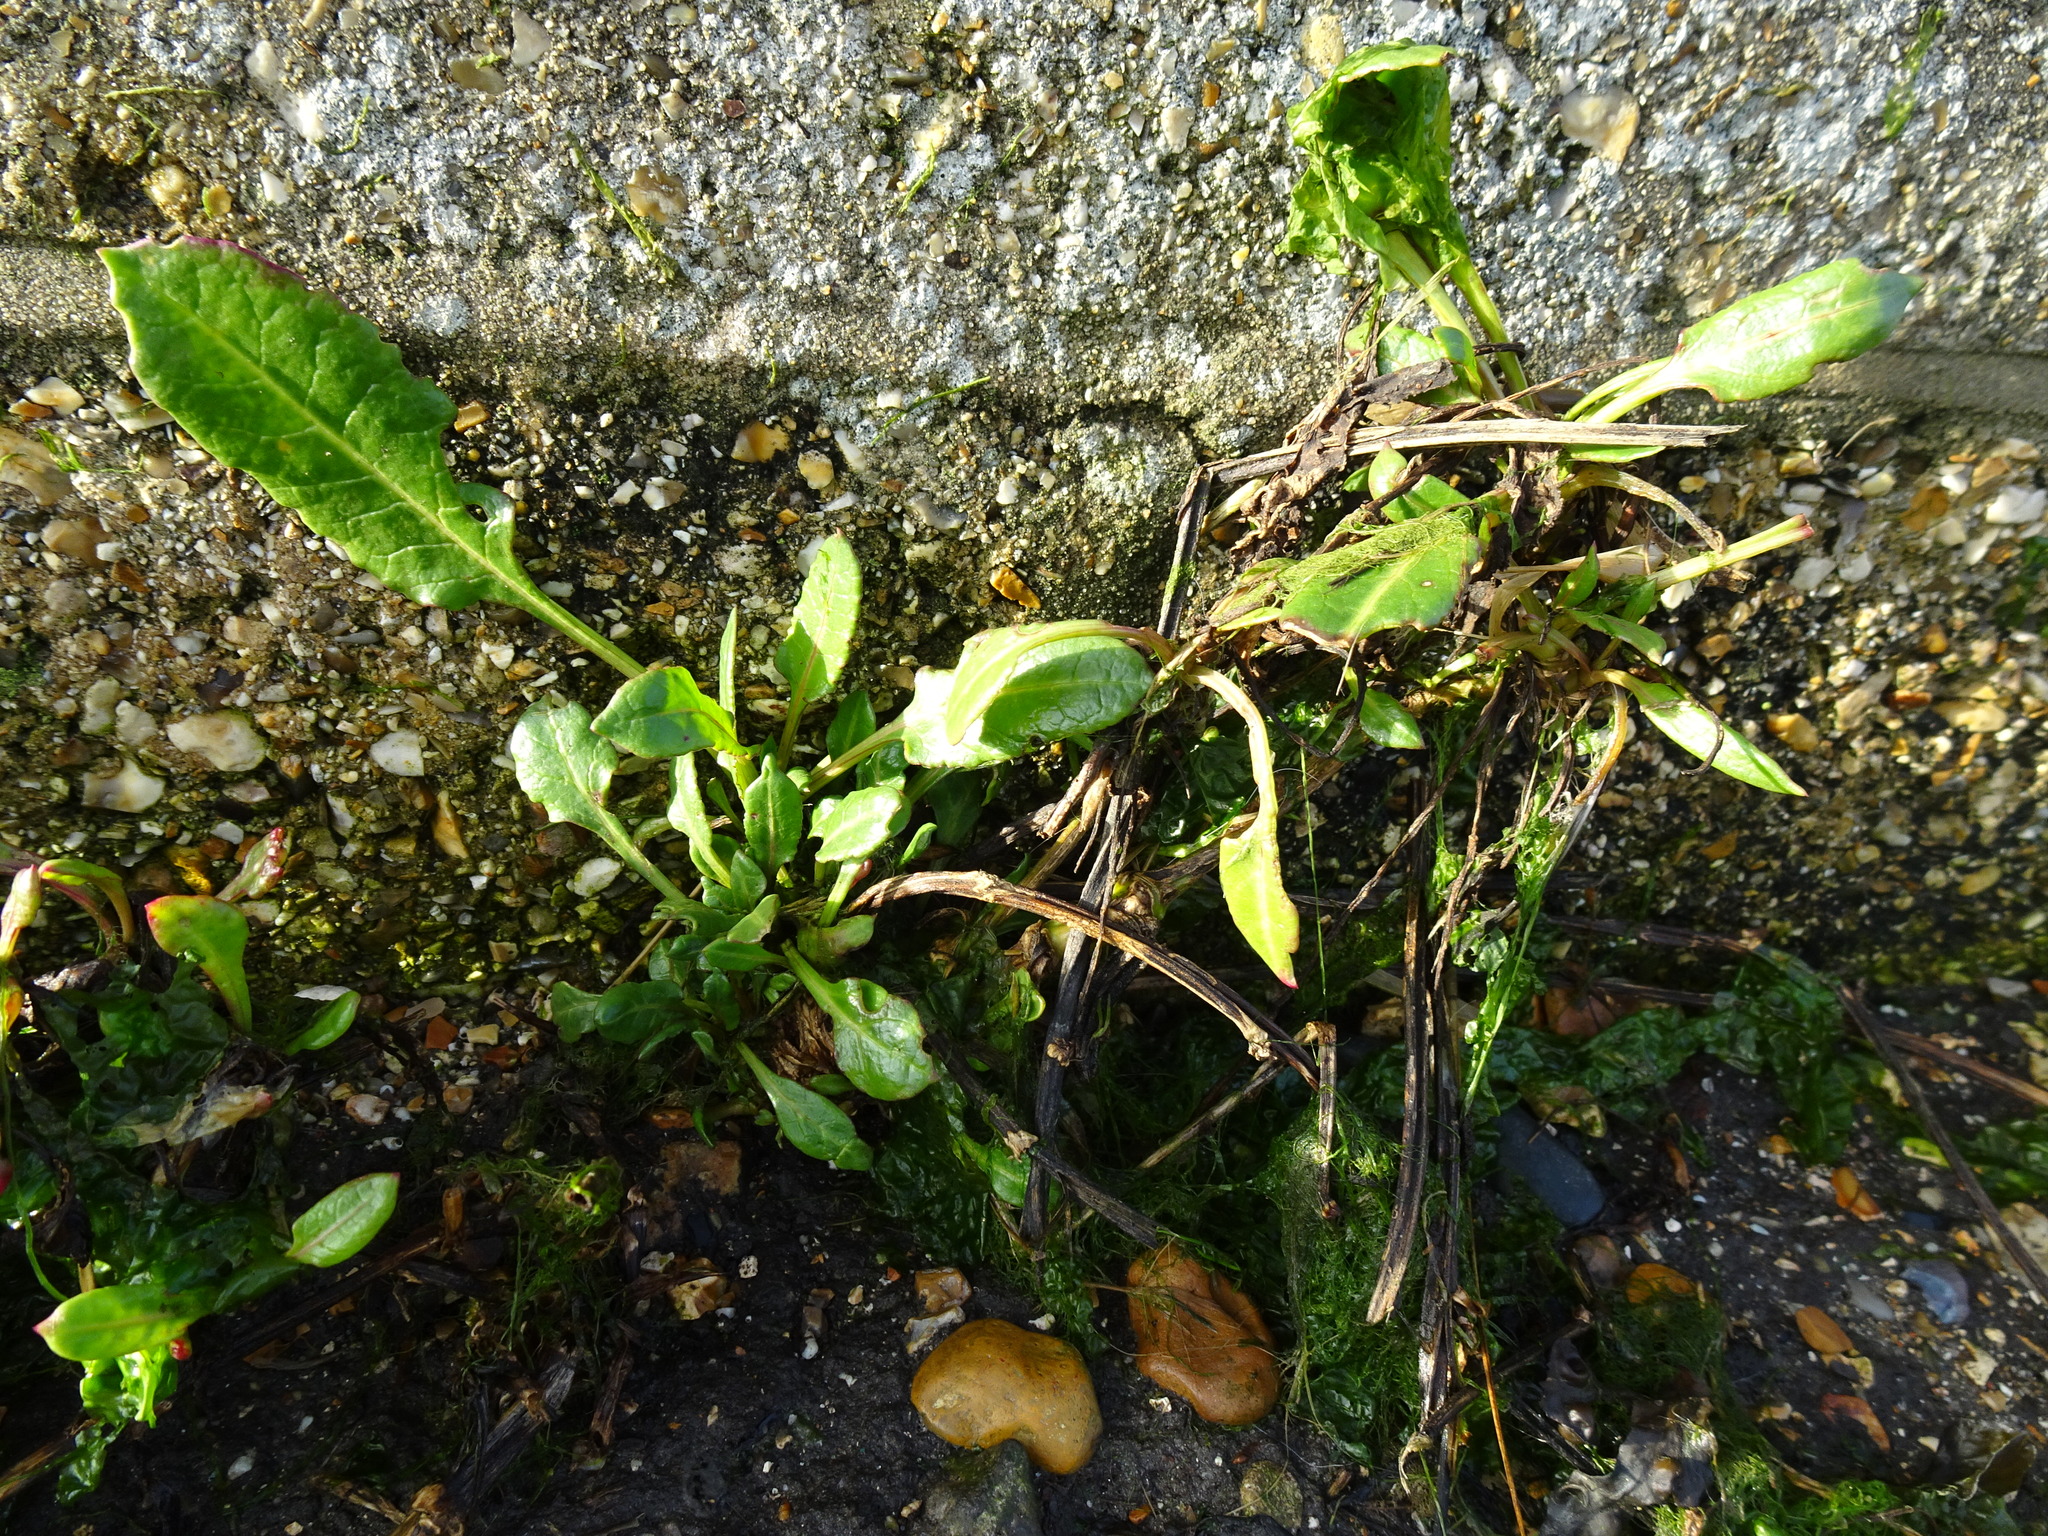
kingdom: Plantae
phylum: Tracheophyta
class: Magnoliopsida
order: Caryophyllales
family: Amaranthaceae
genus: Beta
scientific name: Beta vulgaris
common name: Beet
